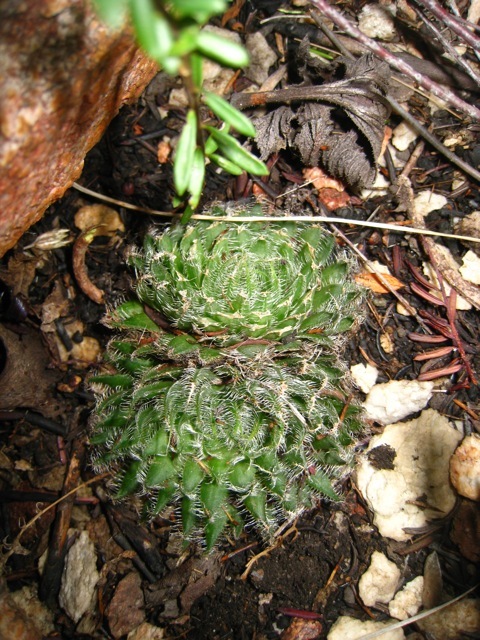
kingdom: Plantae
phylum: Tracheophyta
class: Liliopsida
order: Asparagales
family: Asphodelaceae
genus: Haworthia
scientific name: Haworthia outeniquensis
